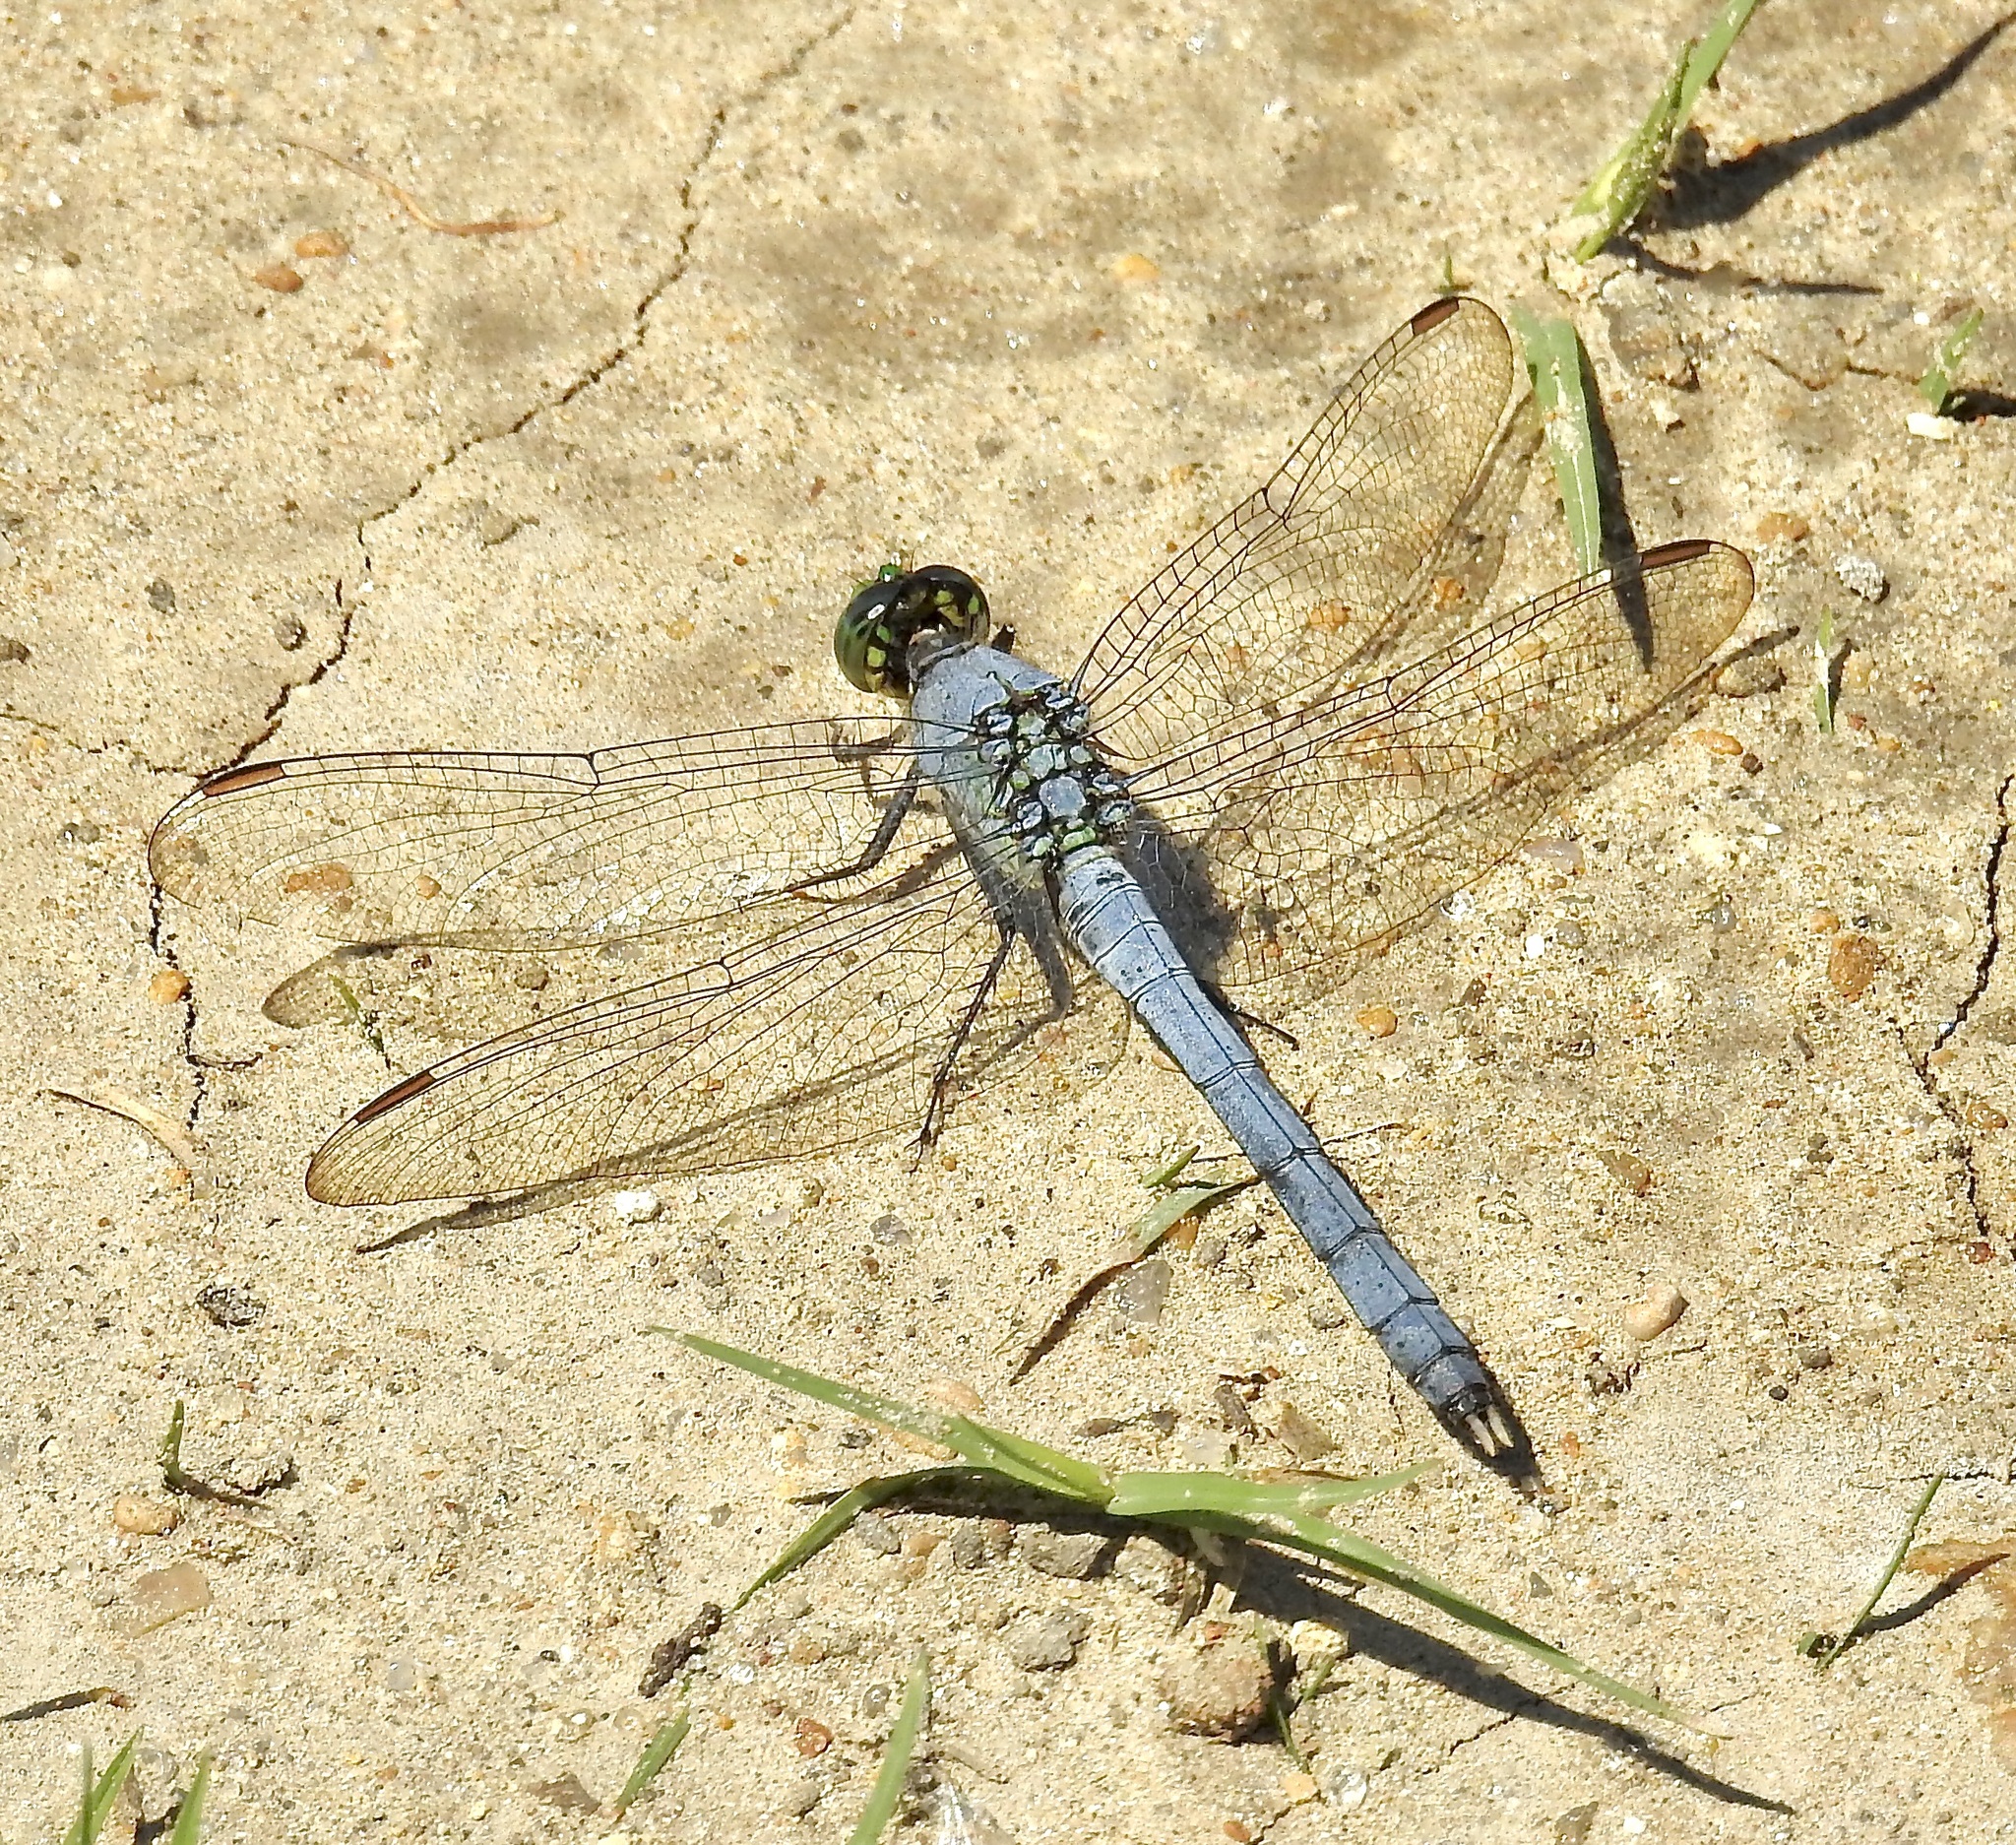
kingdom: Animalia
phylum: Arthropoda
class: Insecta
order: Odonata
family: Libellulidae
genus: Erythemis
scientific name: Erythemis simplicicollis
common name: Eastern pondhawk
